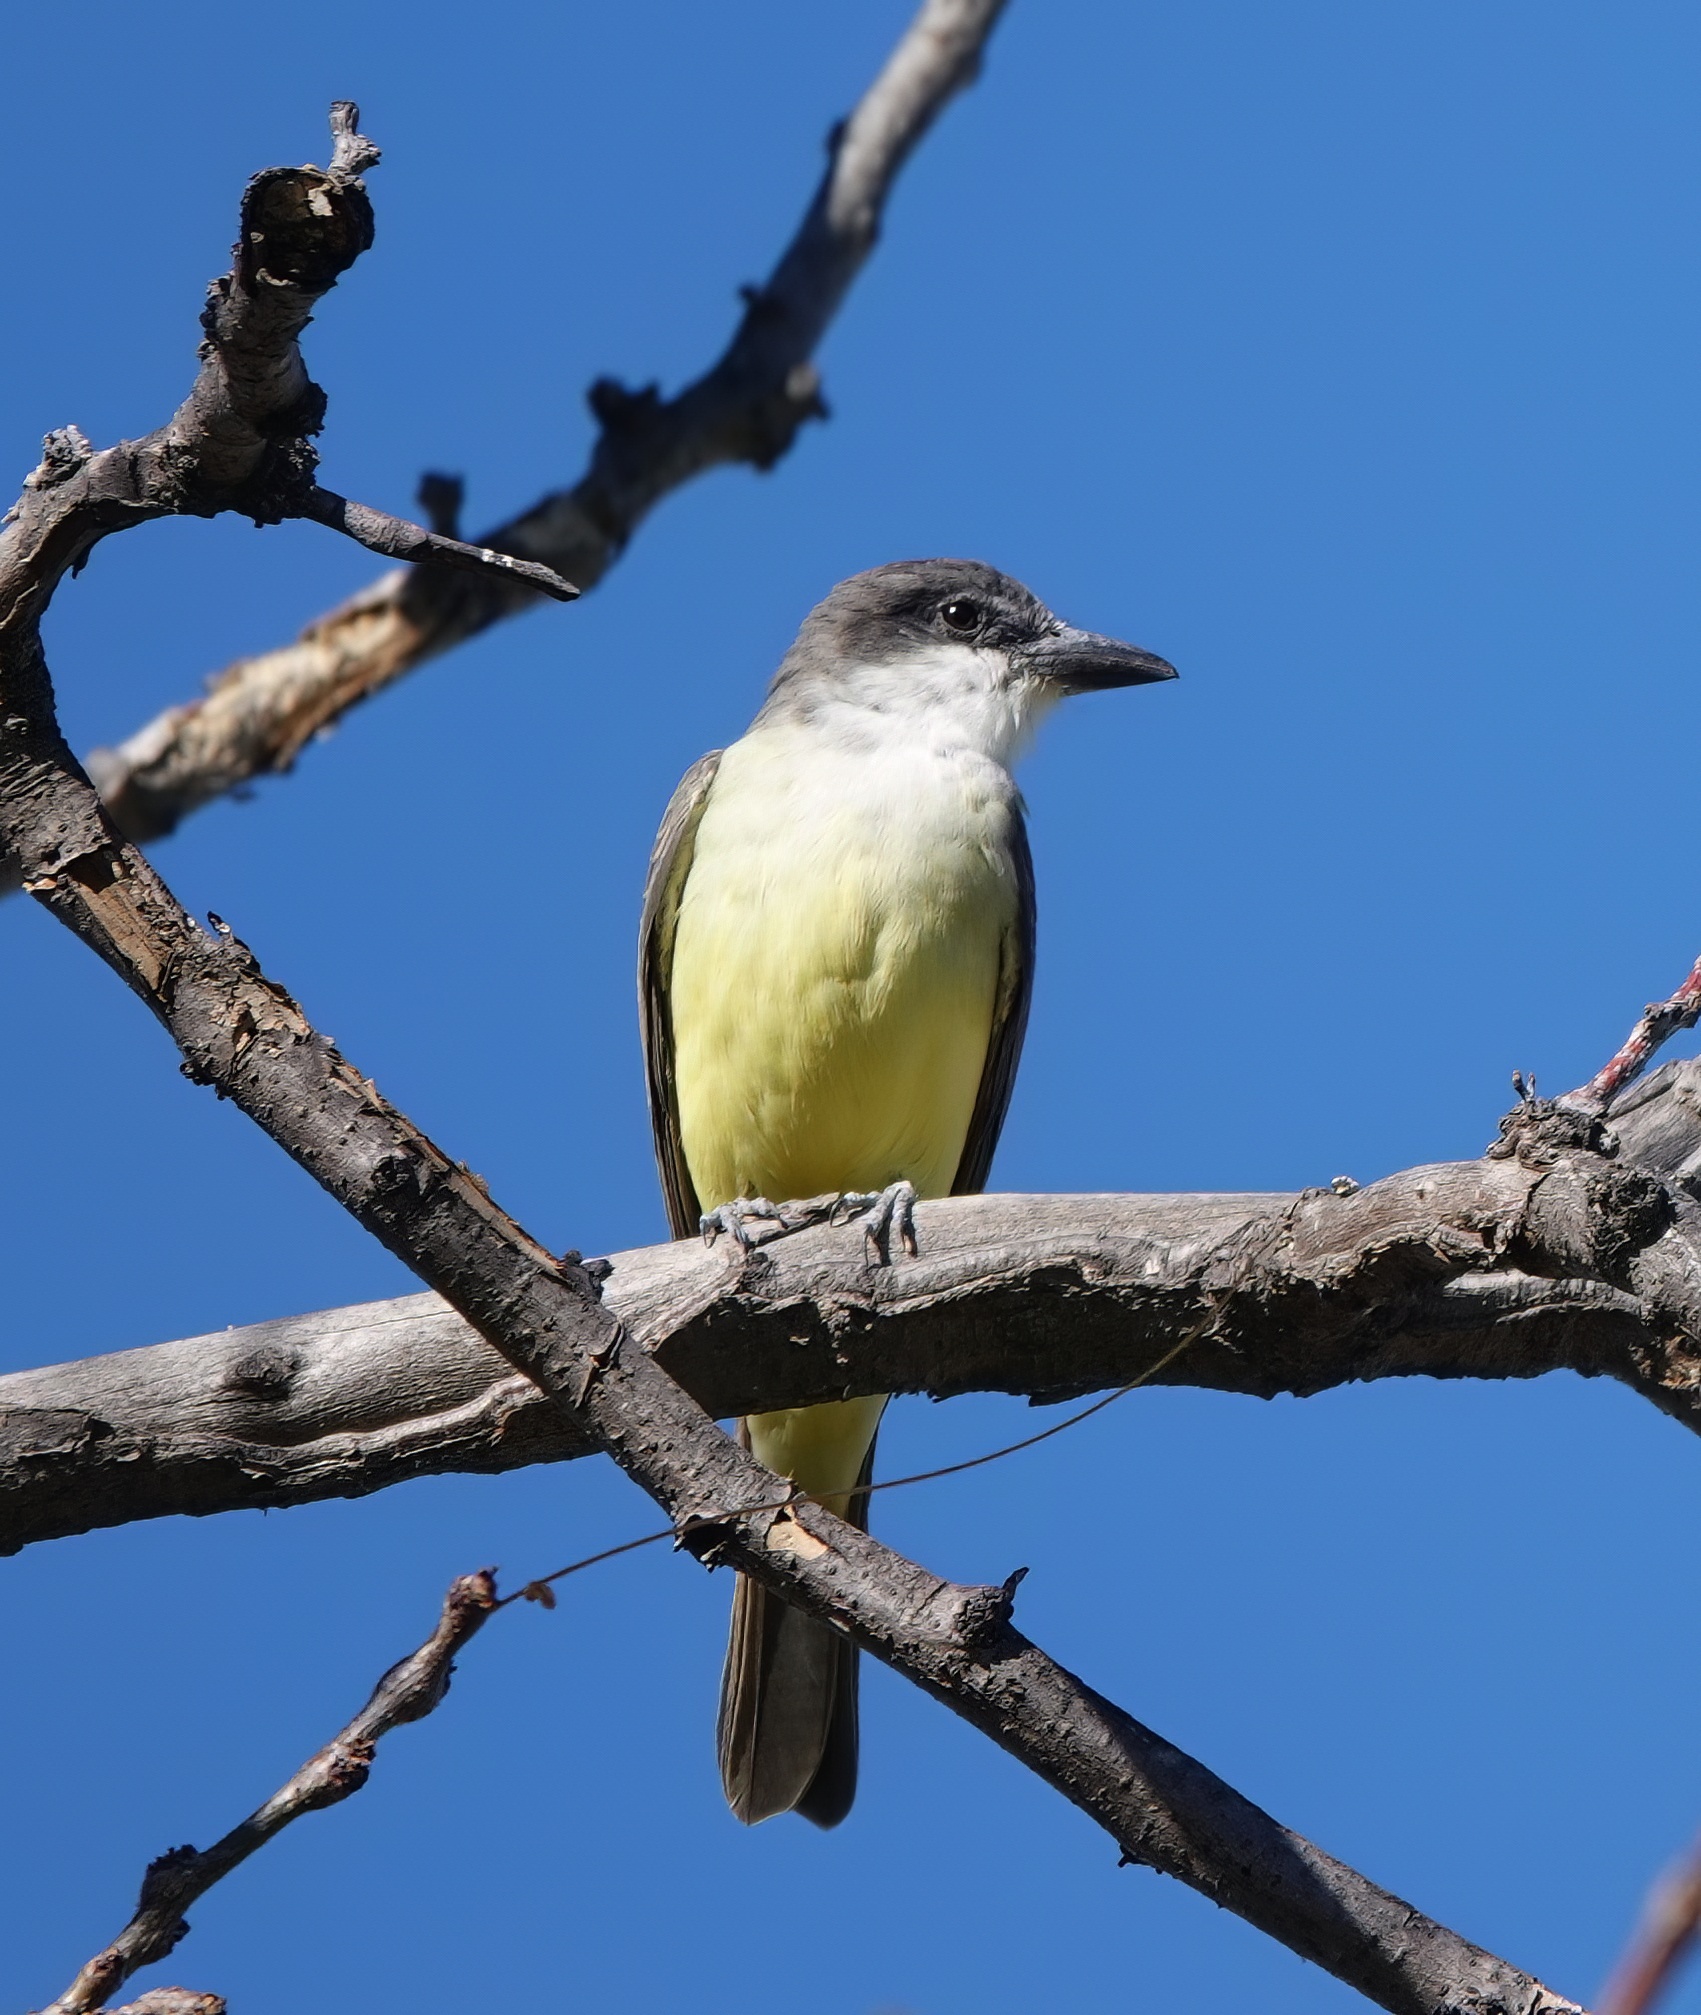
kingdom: Animalia
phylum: Chordata
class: Aves
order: Passeriformes
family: Tyrannidae
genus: Tyrannus
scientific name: Tyrannus crassirostris
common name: Thick-billed kingbird
